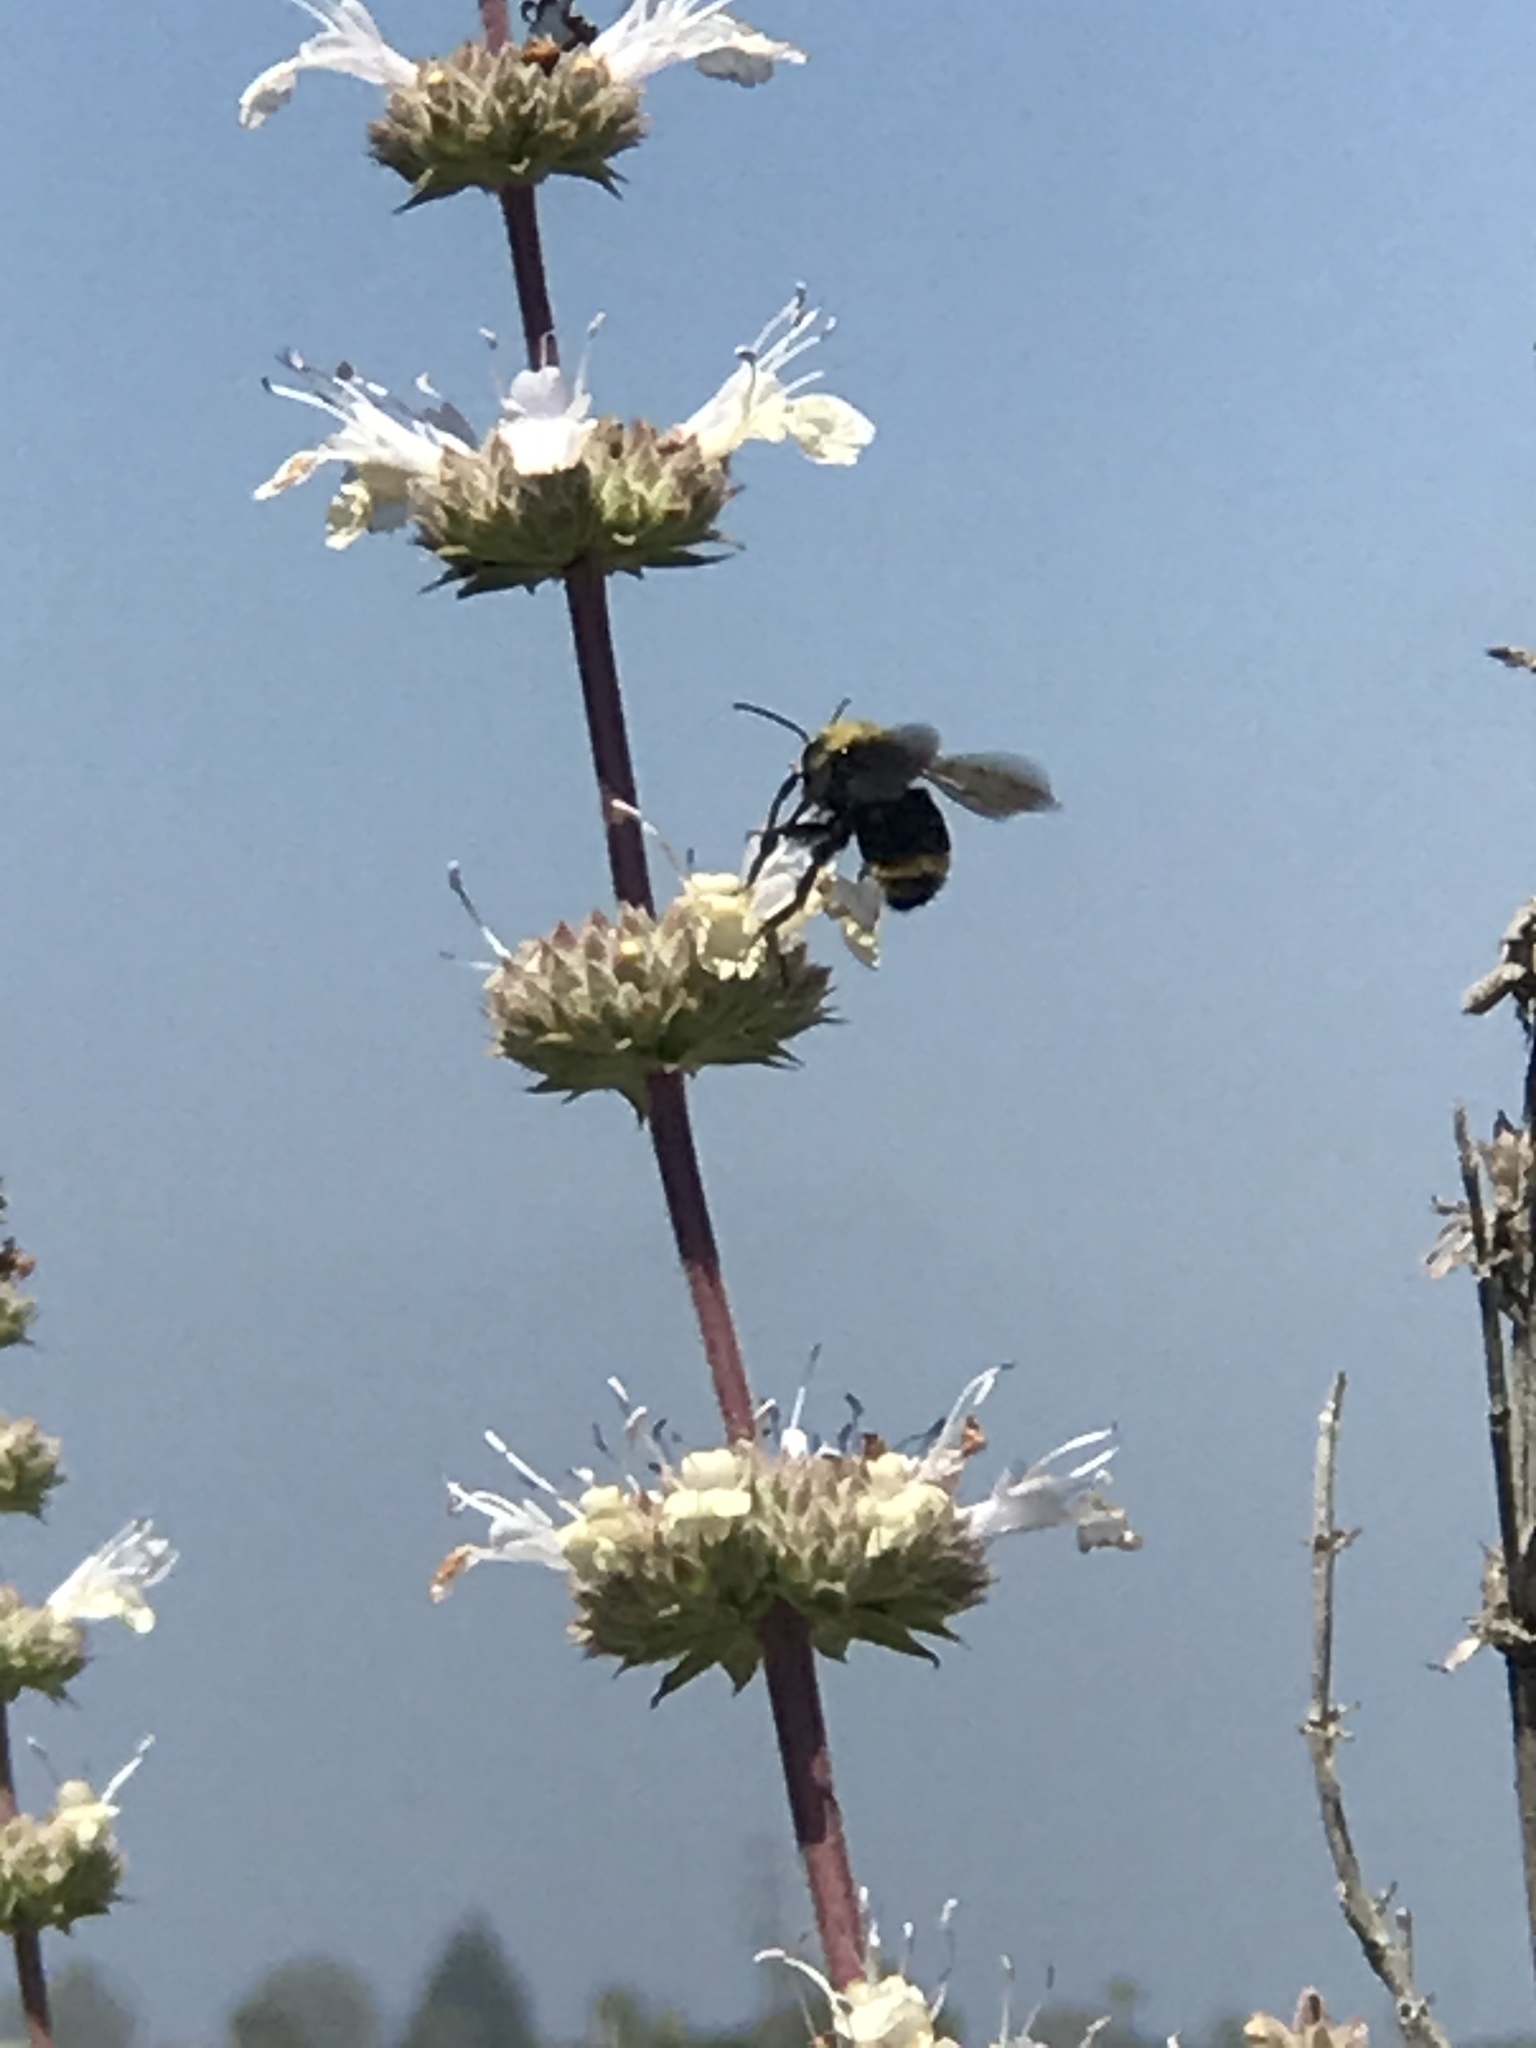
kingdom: Animalia
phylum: Arthropoda
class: Insecta
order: Hymenoptera
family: Apidae
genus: Bombus
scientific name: Bombus vosnesenskii
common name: Vosnesensky bumble bee
